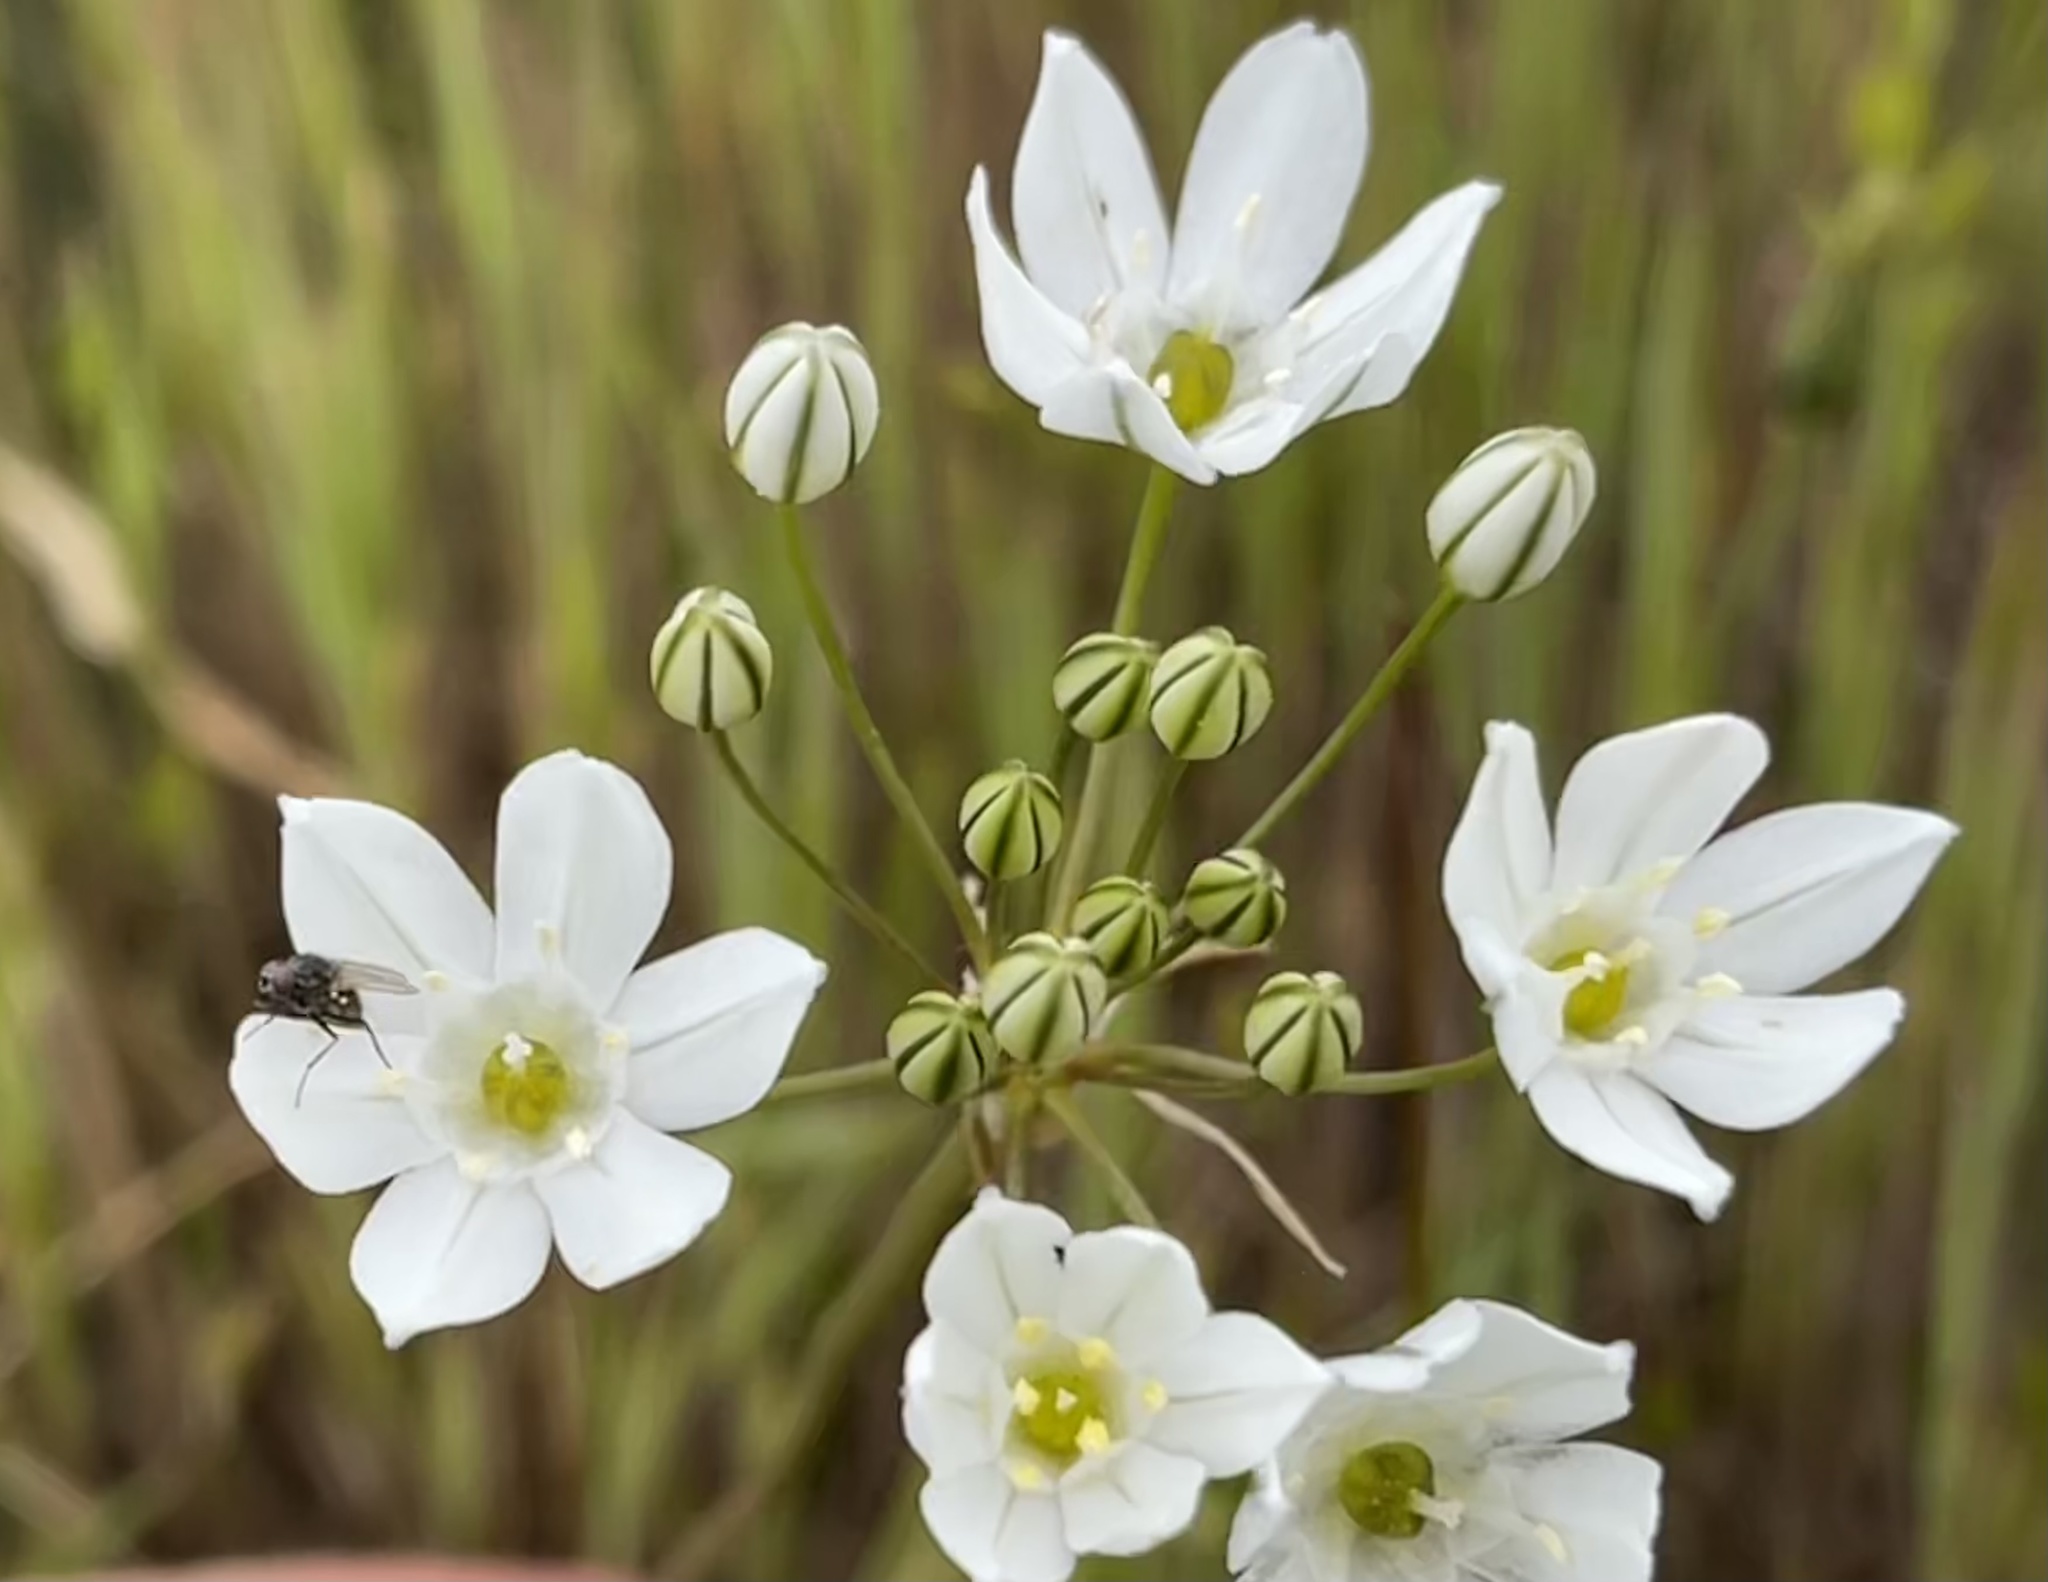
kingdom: Plantae
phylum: Tracheophyta
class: Liliopsida
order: Asparagales
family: Asparagaceae
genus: Triteleia
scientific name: Triteleia hyacinthina
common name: White brodiaea
